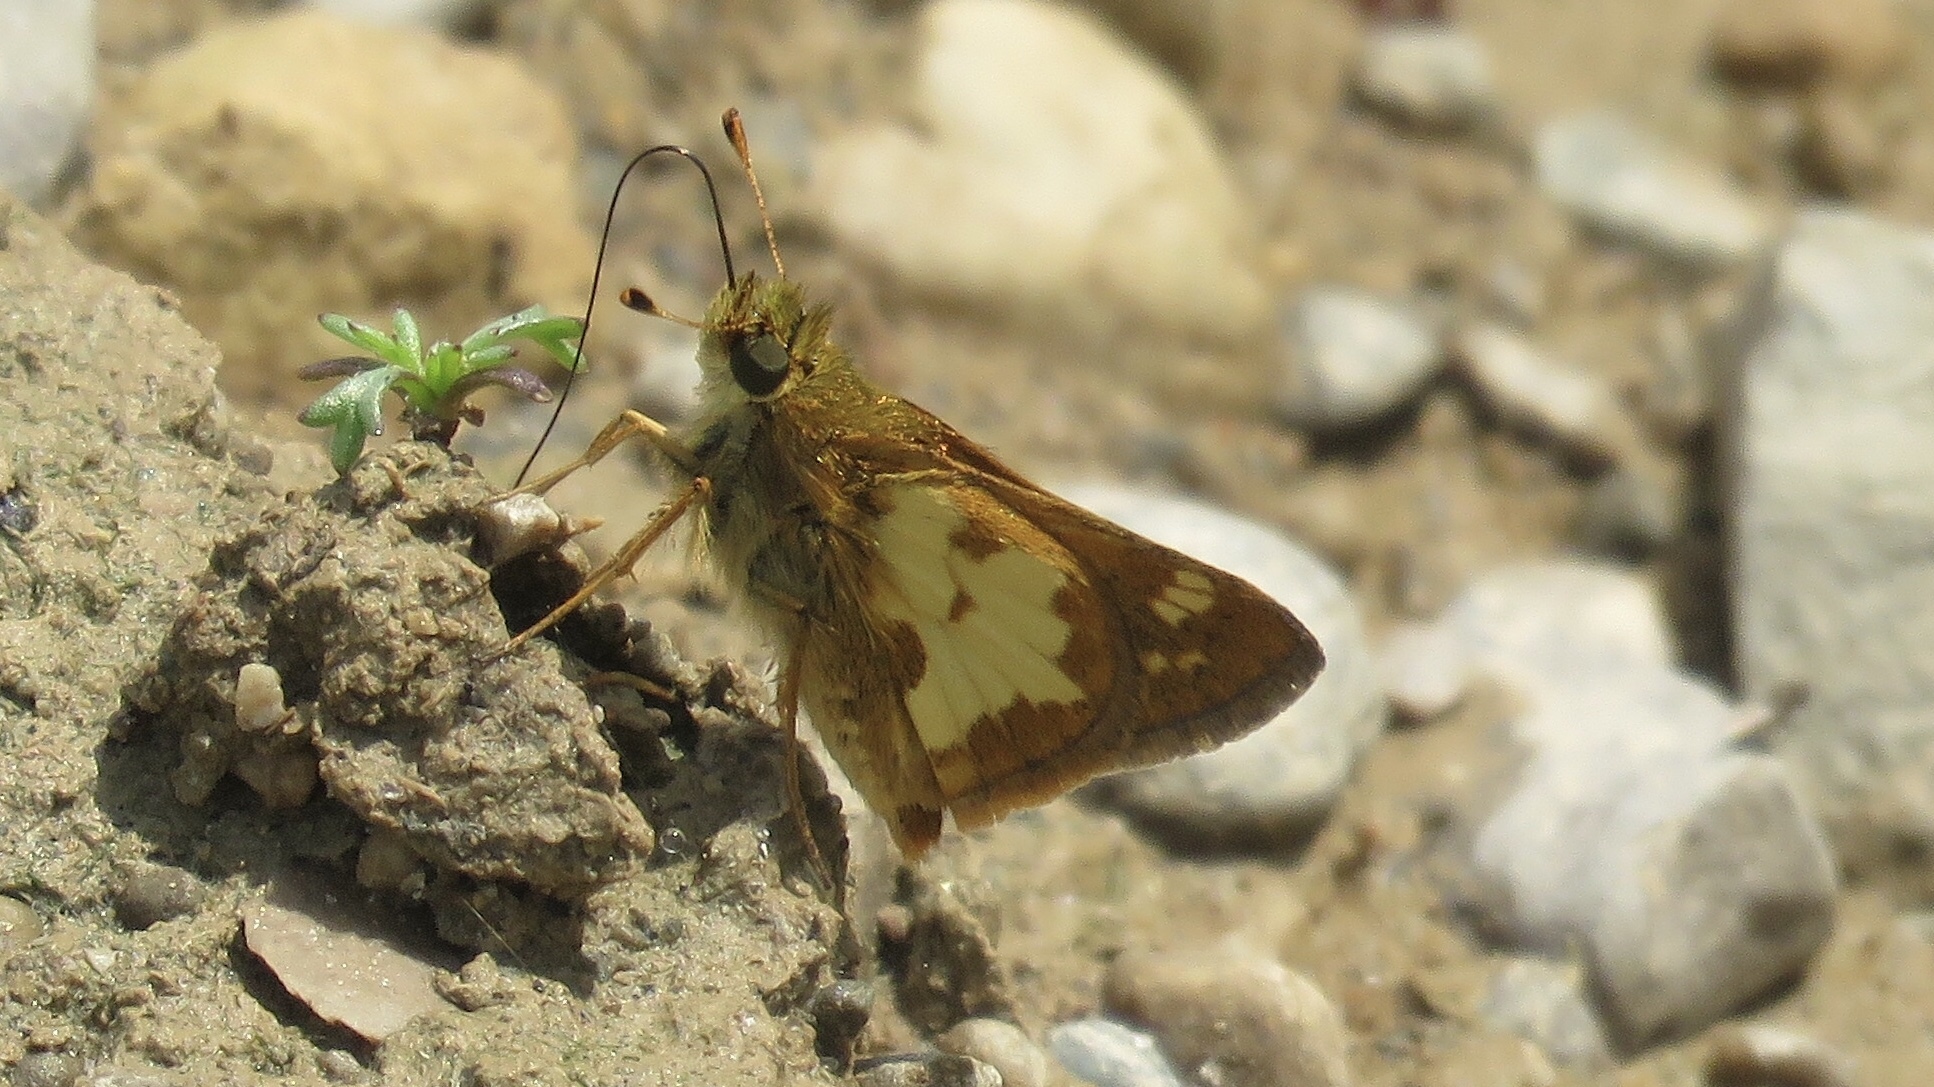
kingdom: Animalia
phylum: Arthropoda
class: Insecta
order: Lepidoptera
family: Hesperiidae
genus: Polites
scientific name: Polites coras
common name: Peck's skipper
